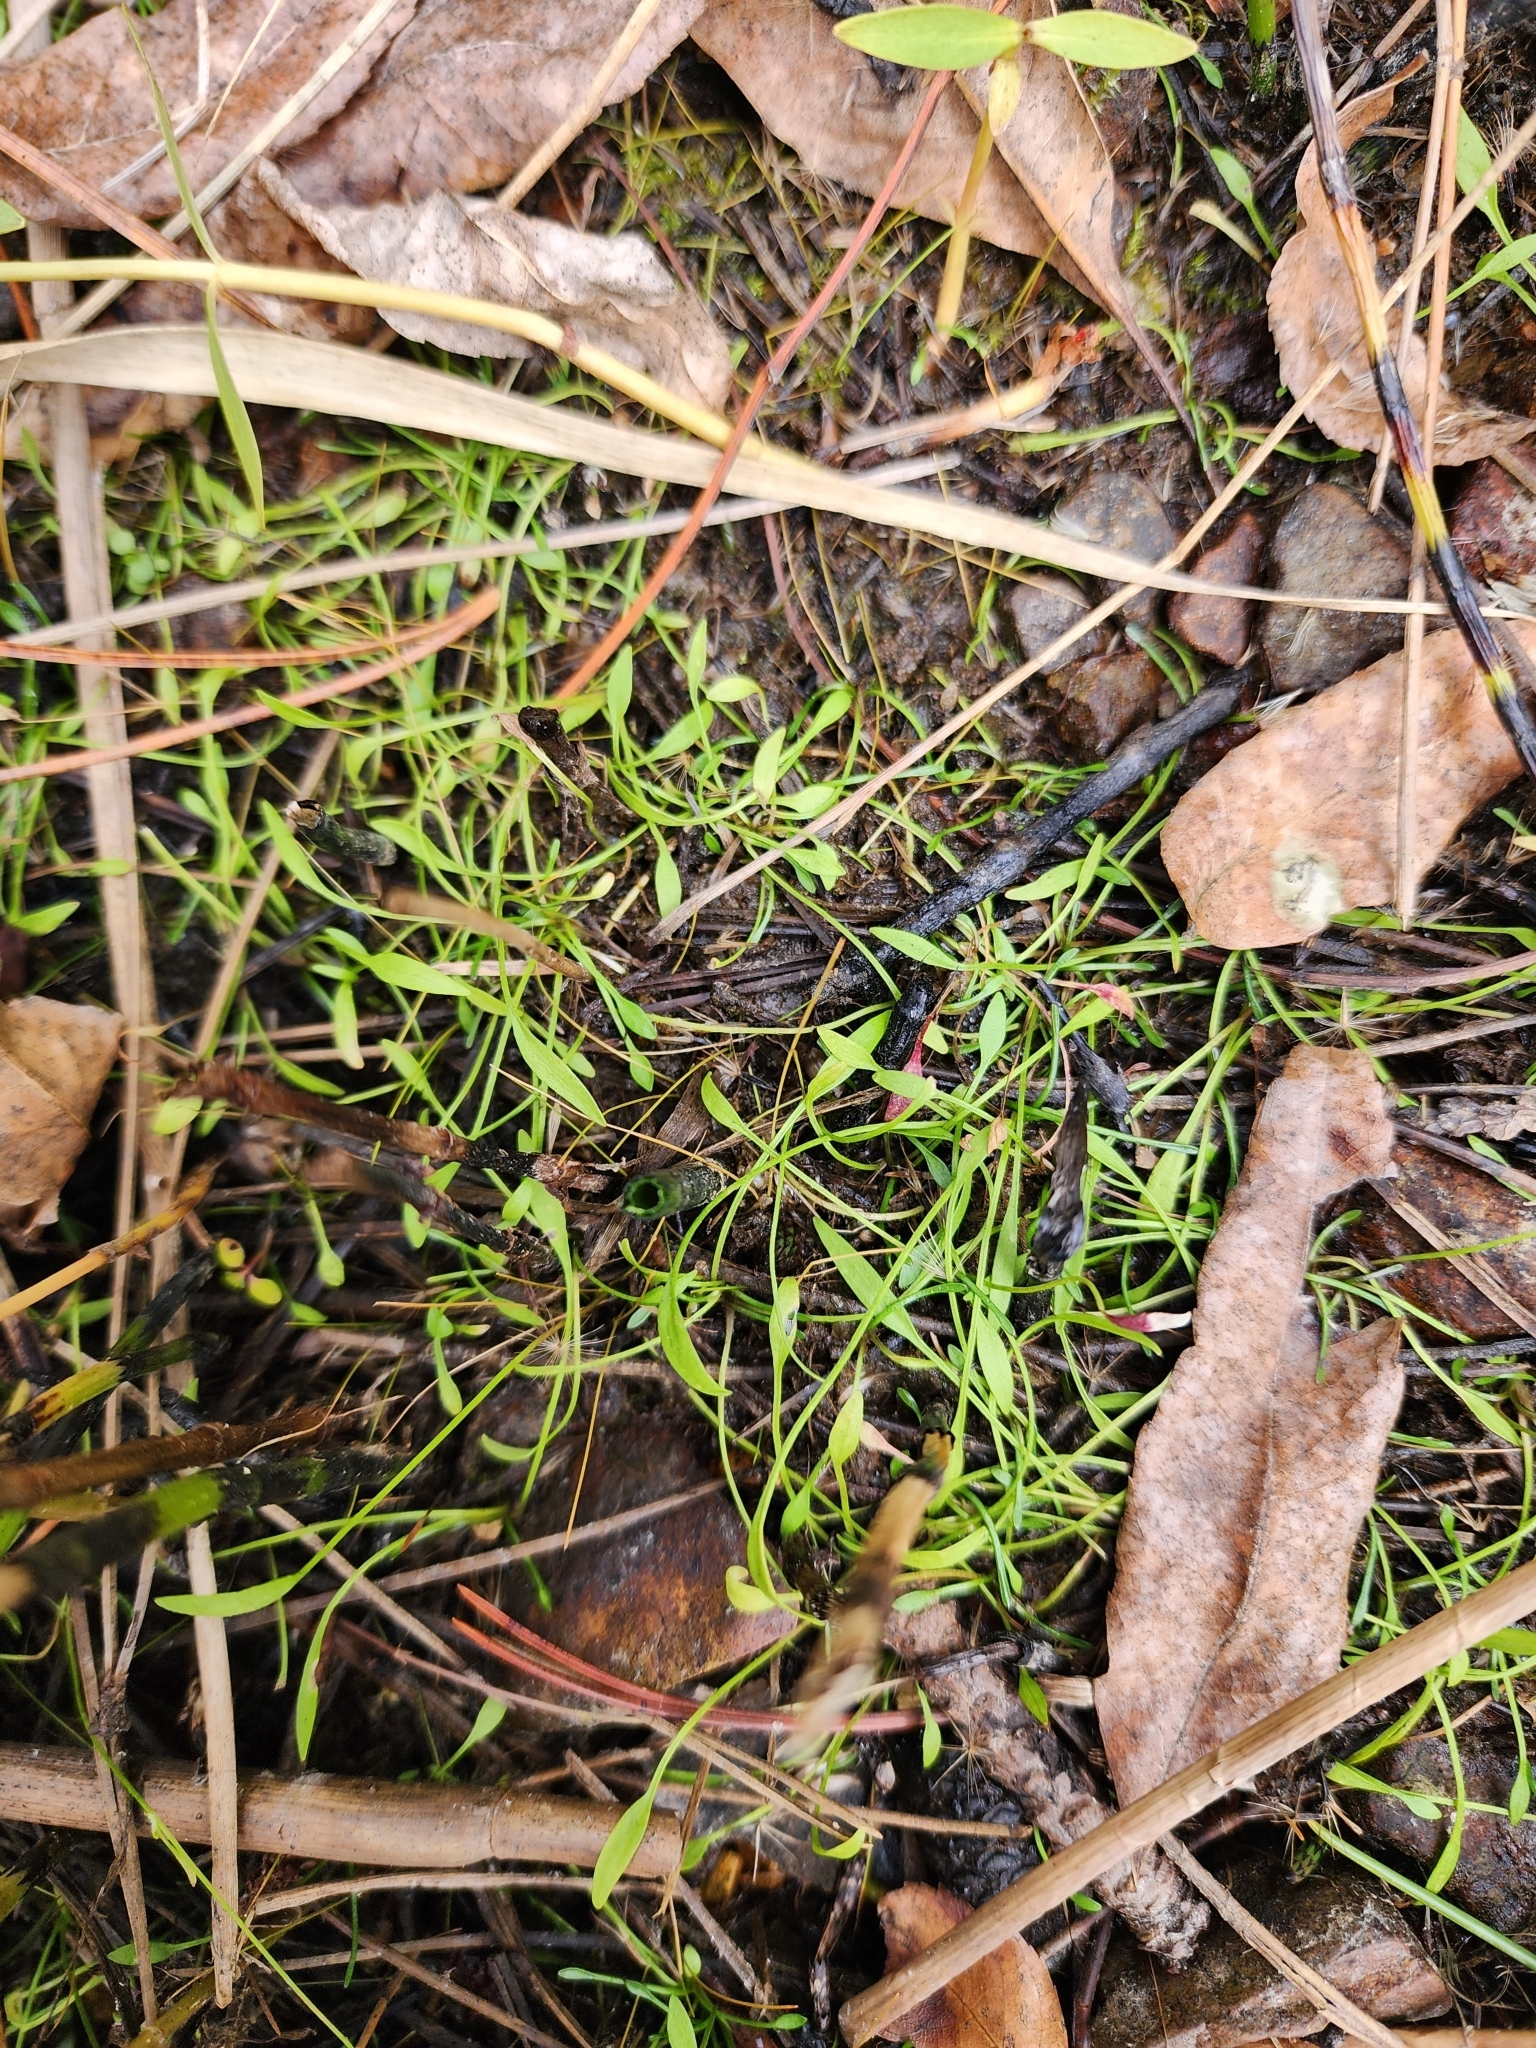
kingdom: Plantae
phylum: Tracheophyta
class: Magnoliopsida
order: Ranunculales
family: Ranunculaceae
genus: Ranunculus
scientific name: Ranunculus flammula
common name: Lesser spearwort
